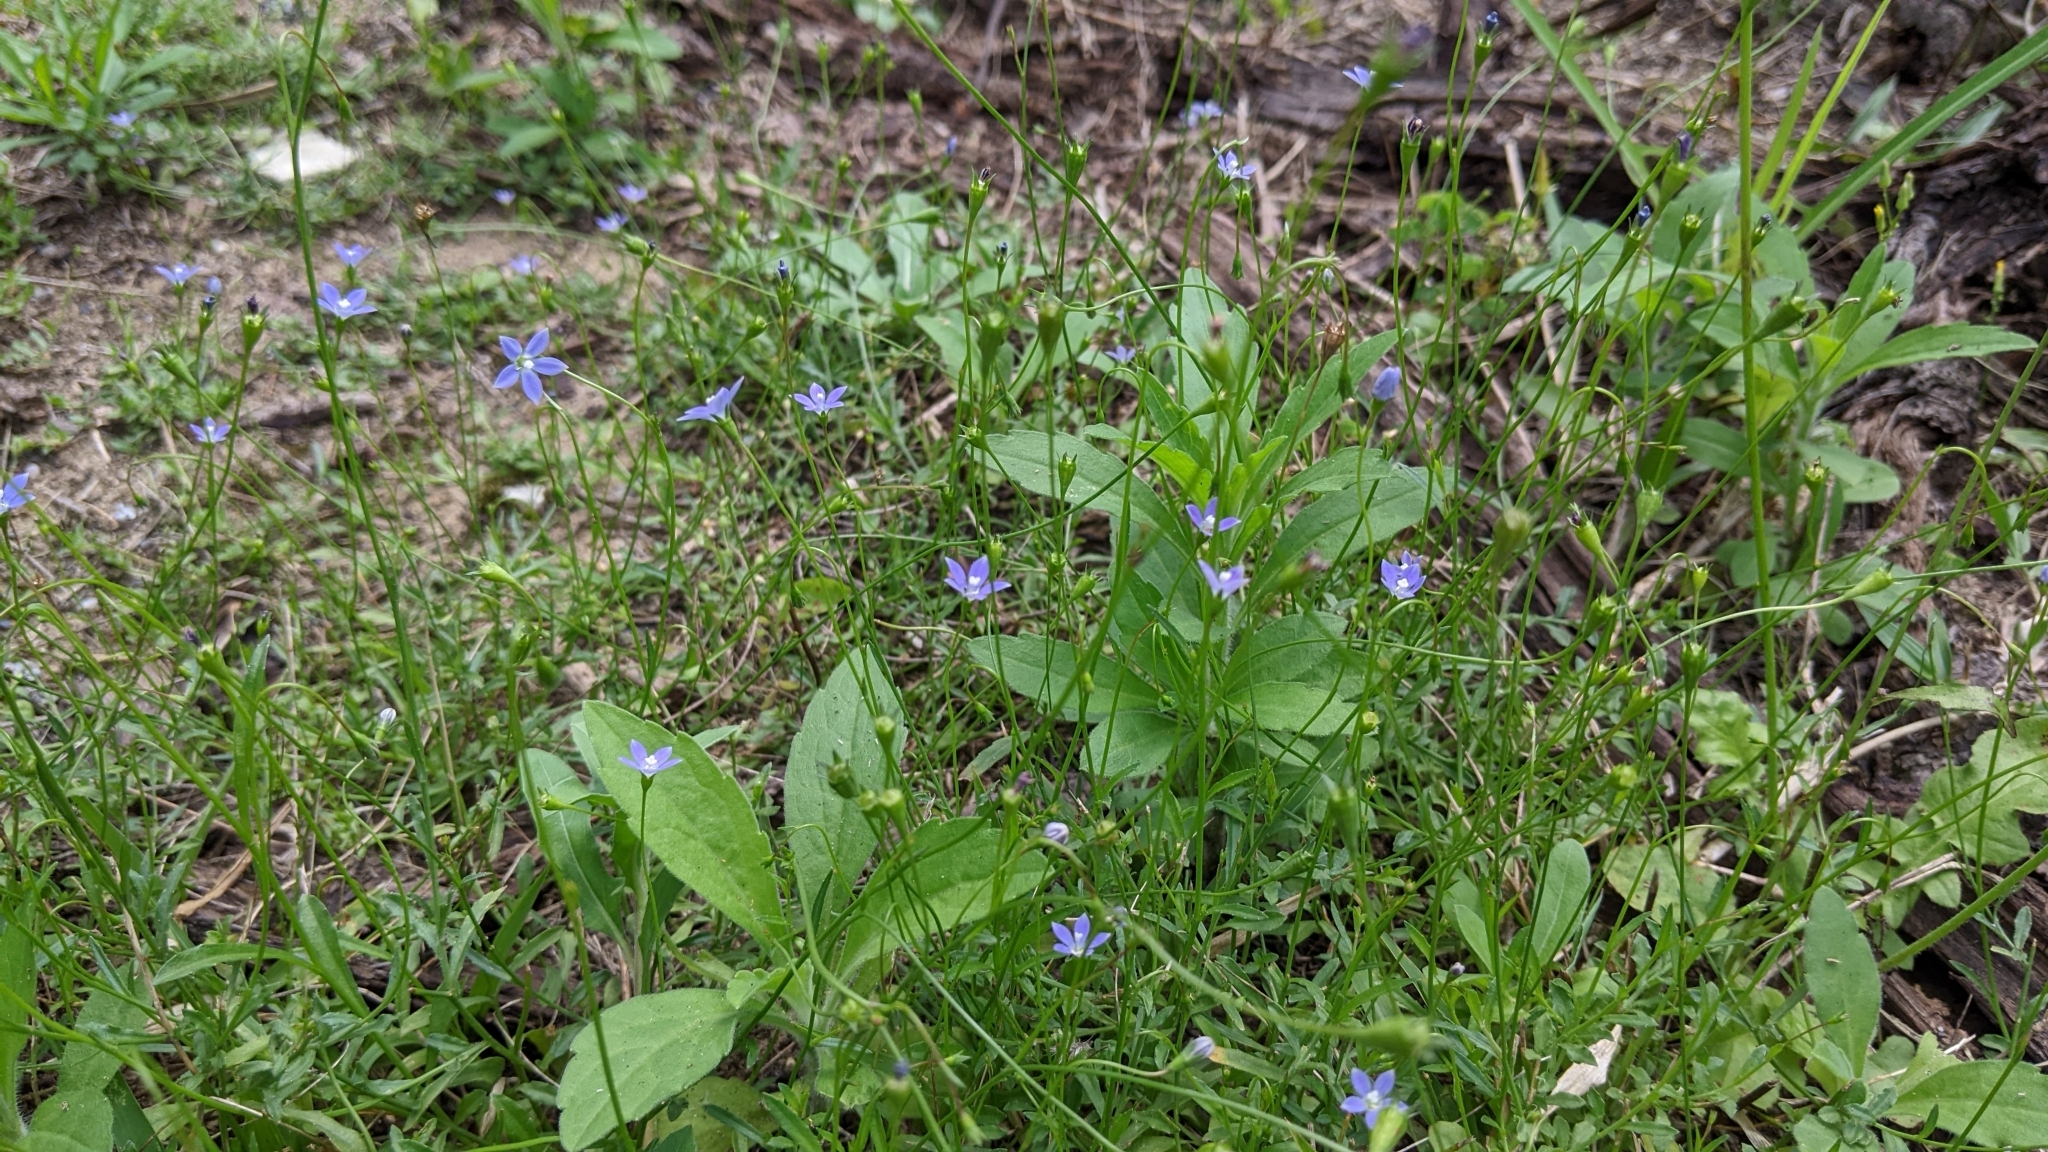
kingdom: Plantae
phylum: Tracheophyta
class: Magnoliopsida
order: Asterales
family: Campanulaceae
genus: Wahlenbergia
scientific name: Wahlenbergia marginata
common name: Southern rockbell
